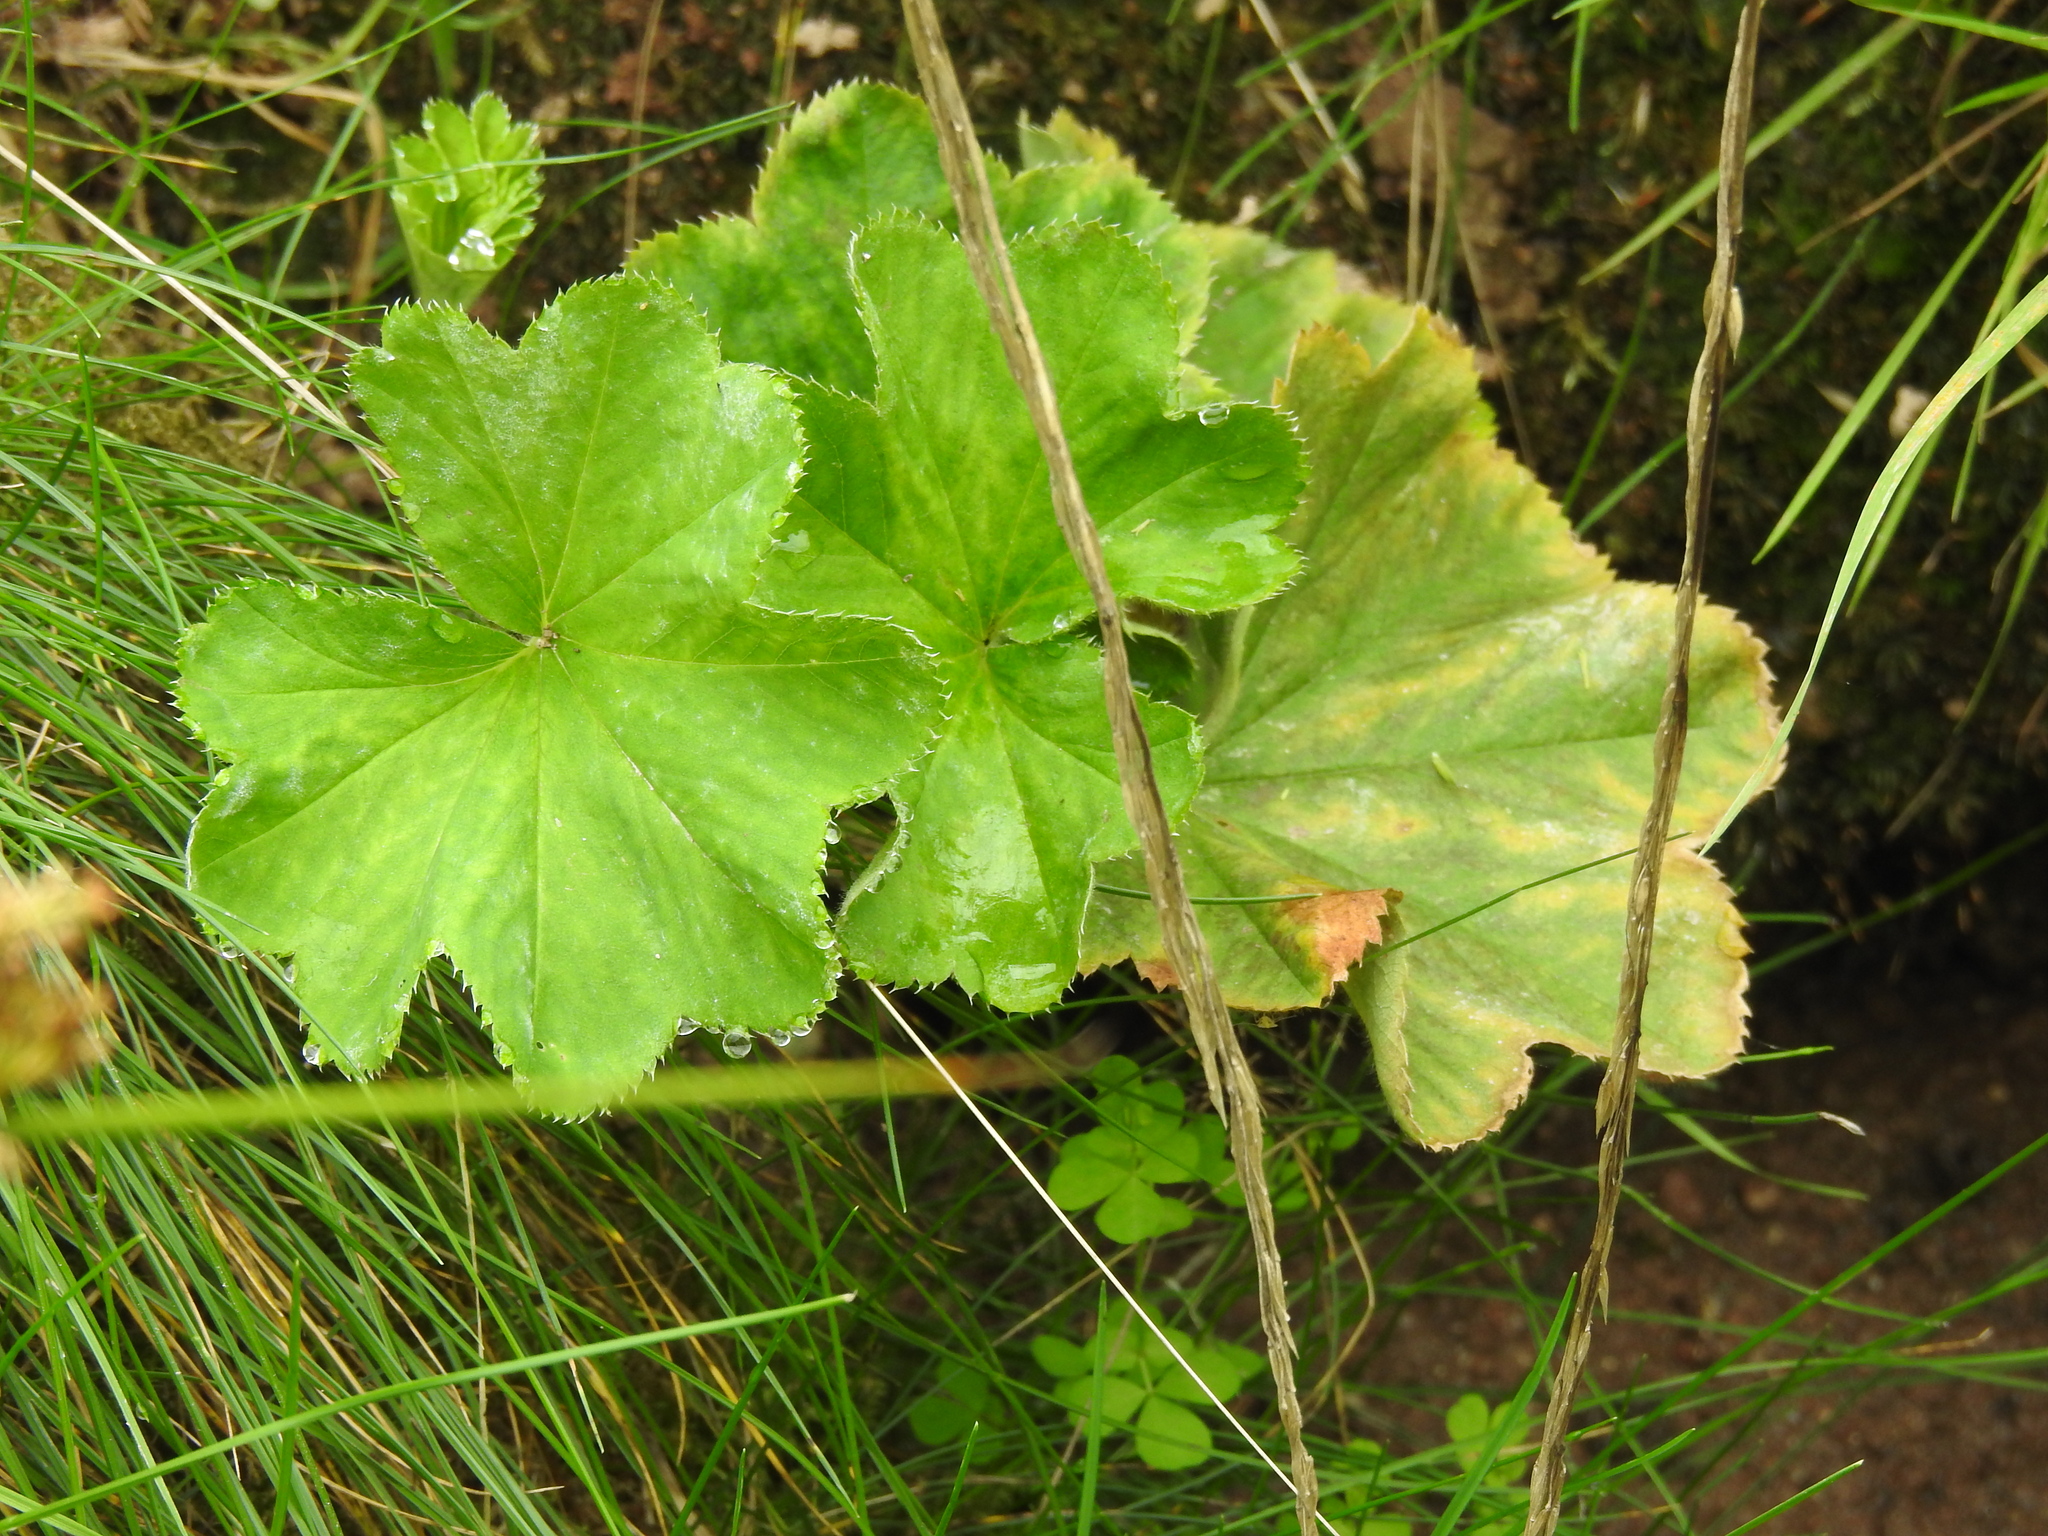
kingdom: Plantae
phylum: Tracheophyta
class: Magnoliopsida
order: Rosales
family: Rosaceae
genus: Alchemilla
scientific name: Alchemilla xanthochlora
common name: Intermediate lady's-mantle
